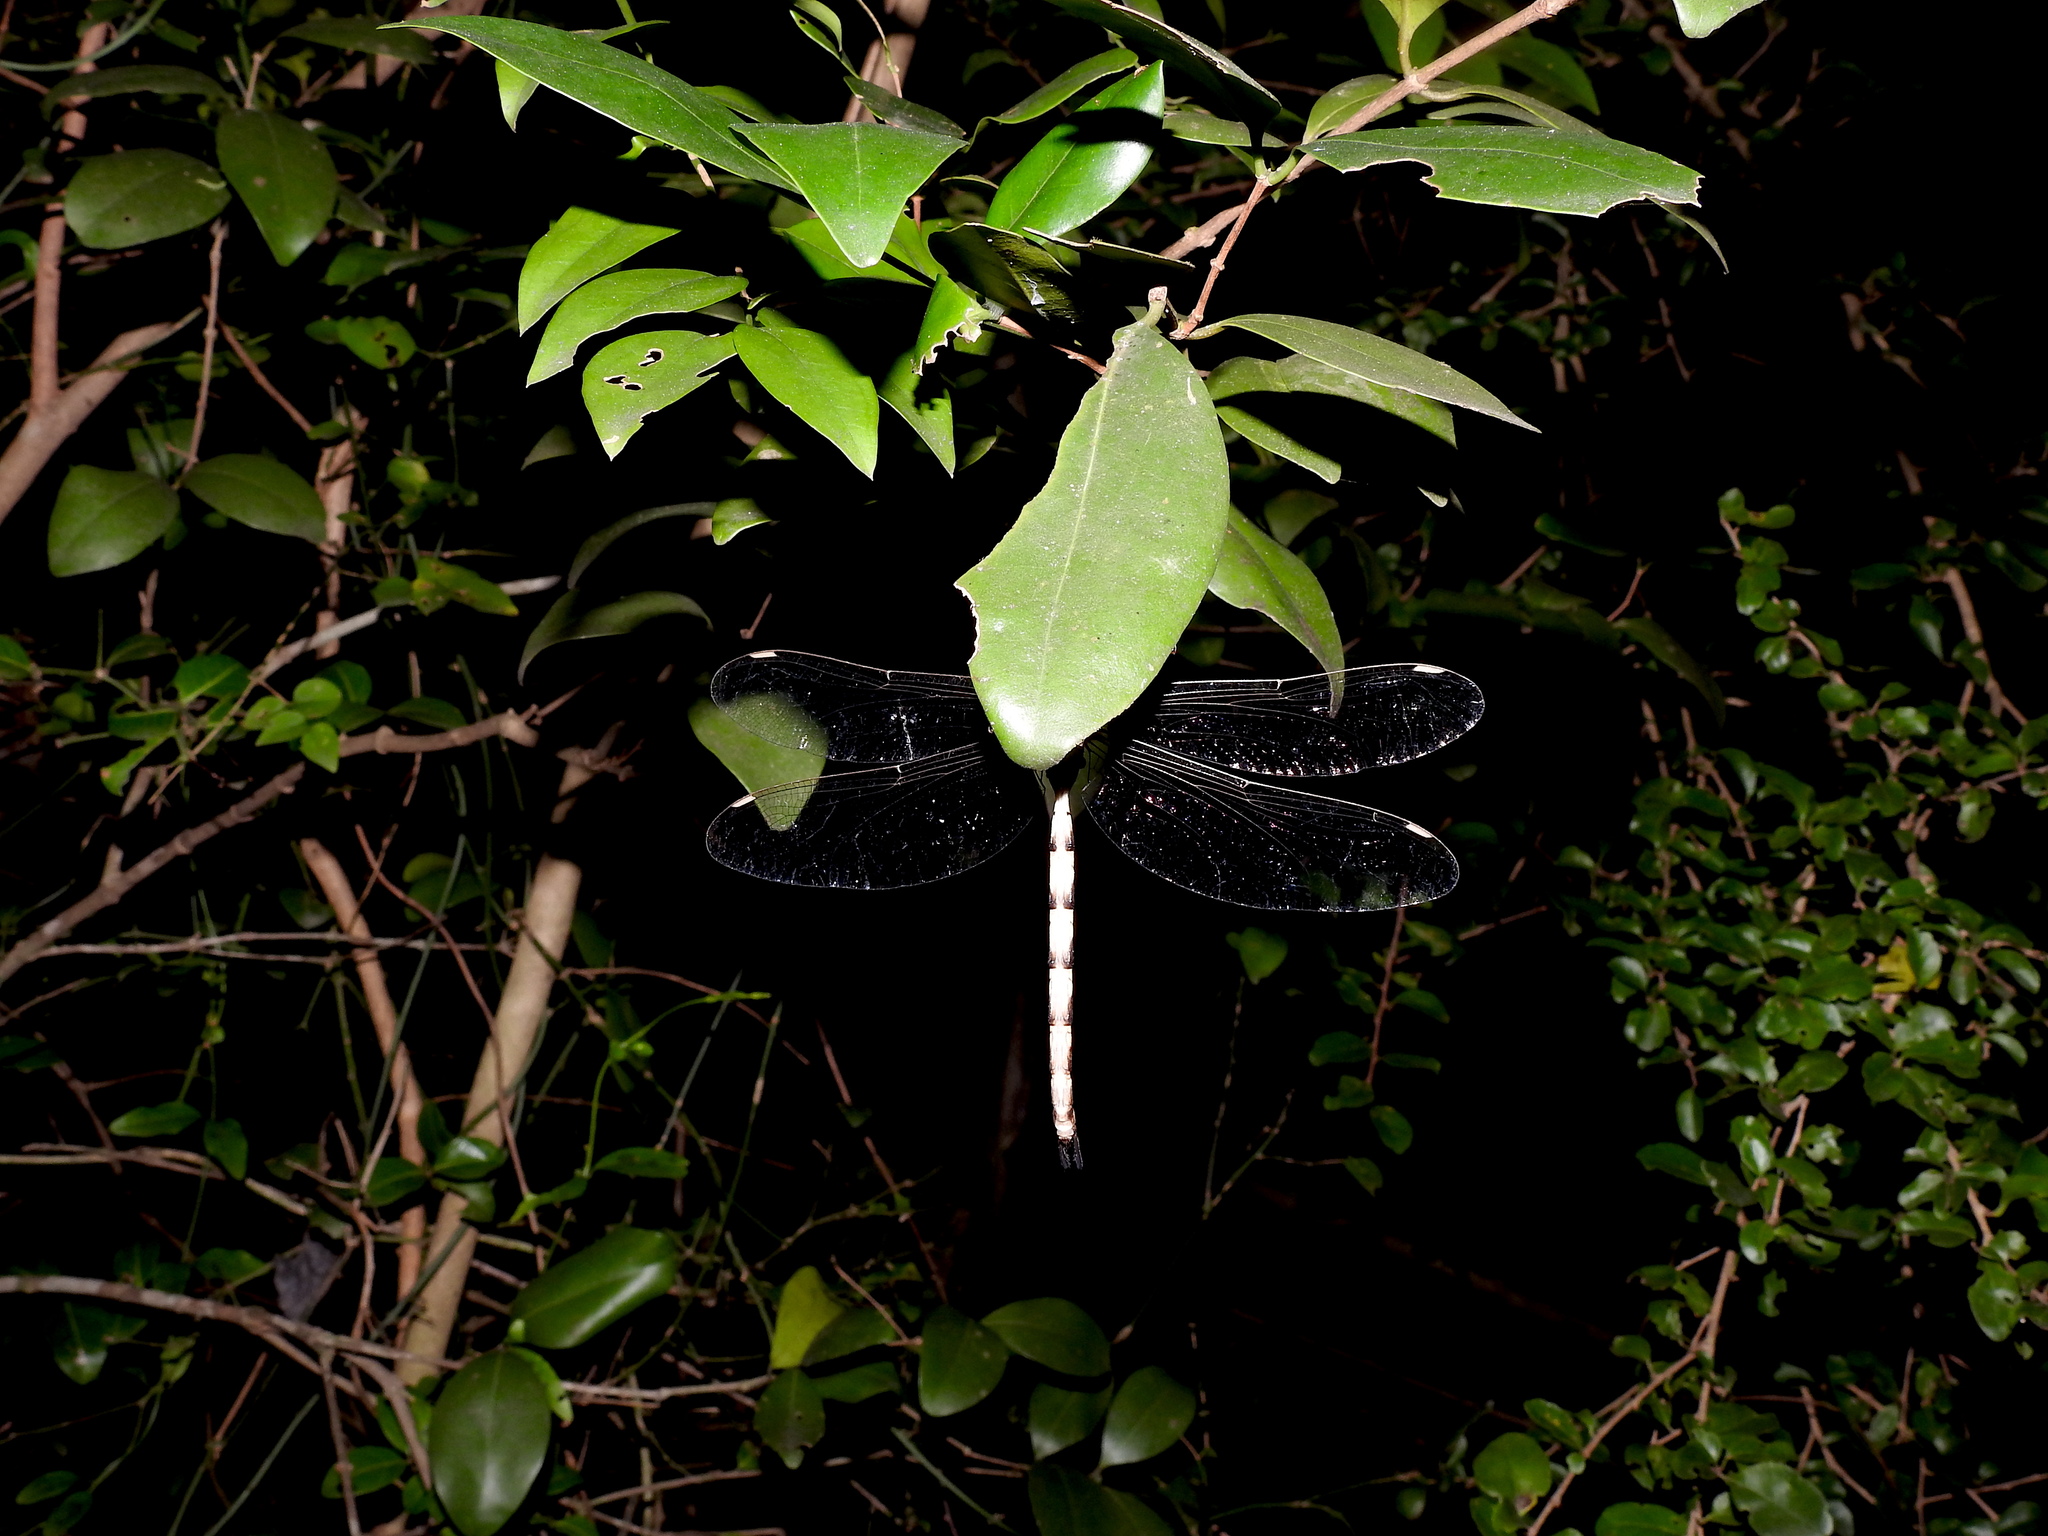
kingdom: Animalia
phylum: Arthropoda
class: Insecta
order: Odonata
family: Aeshnidae
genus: Gynacantha
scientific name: Gynacantha dravida
